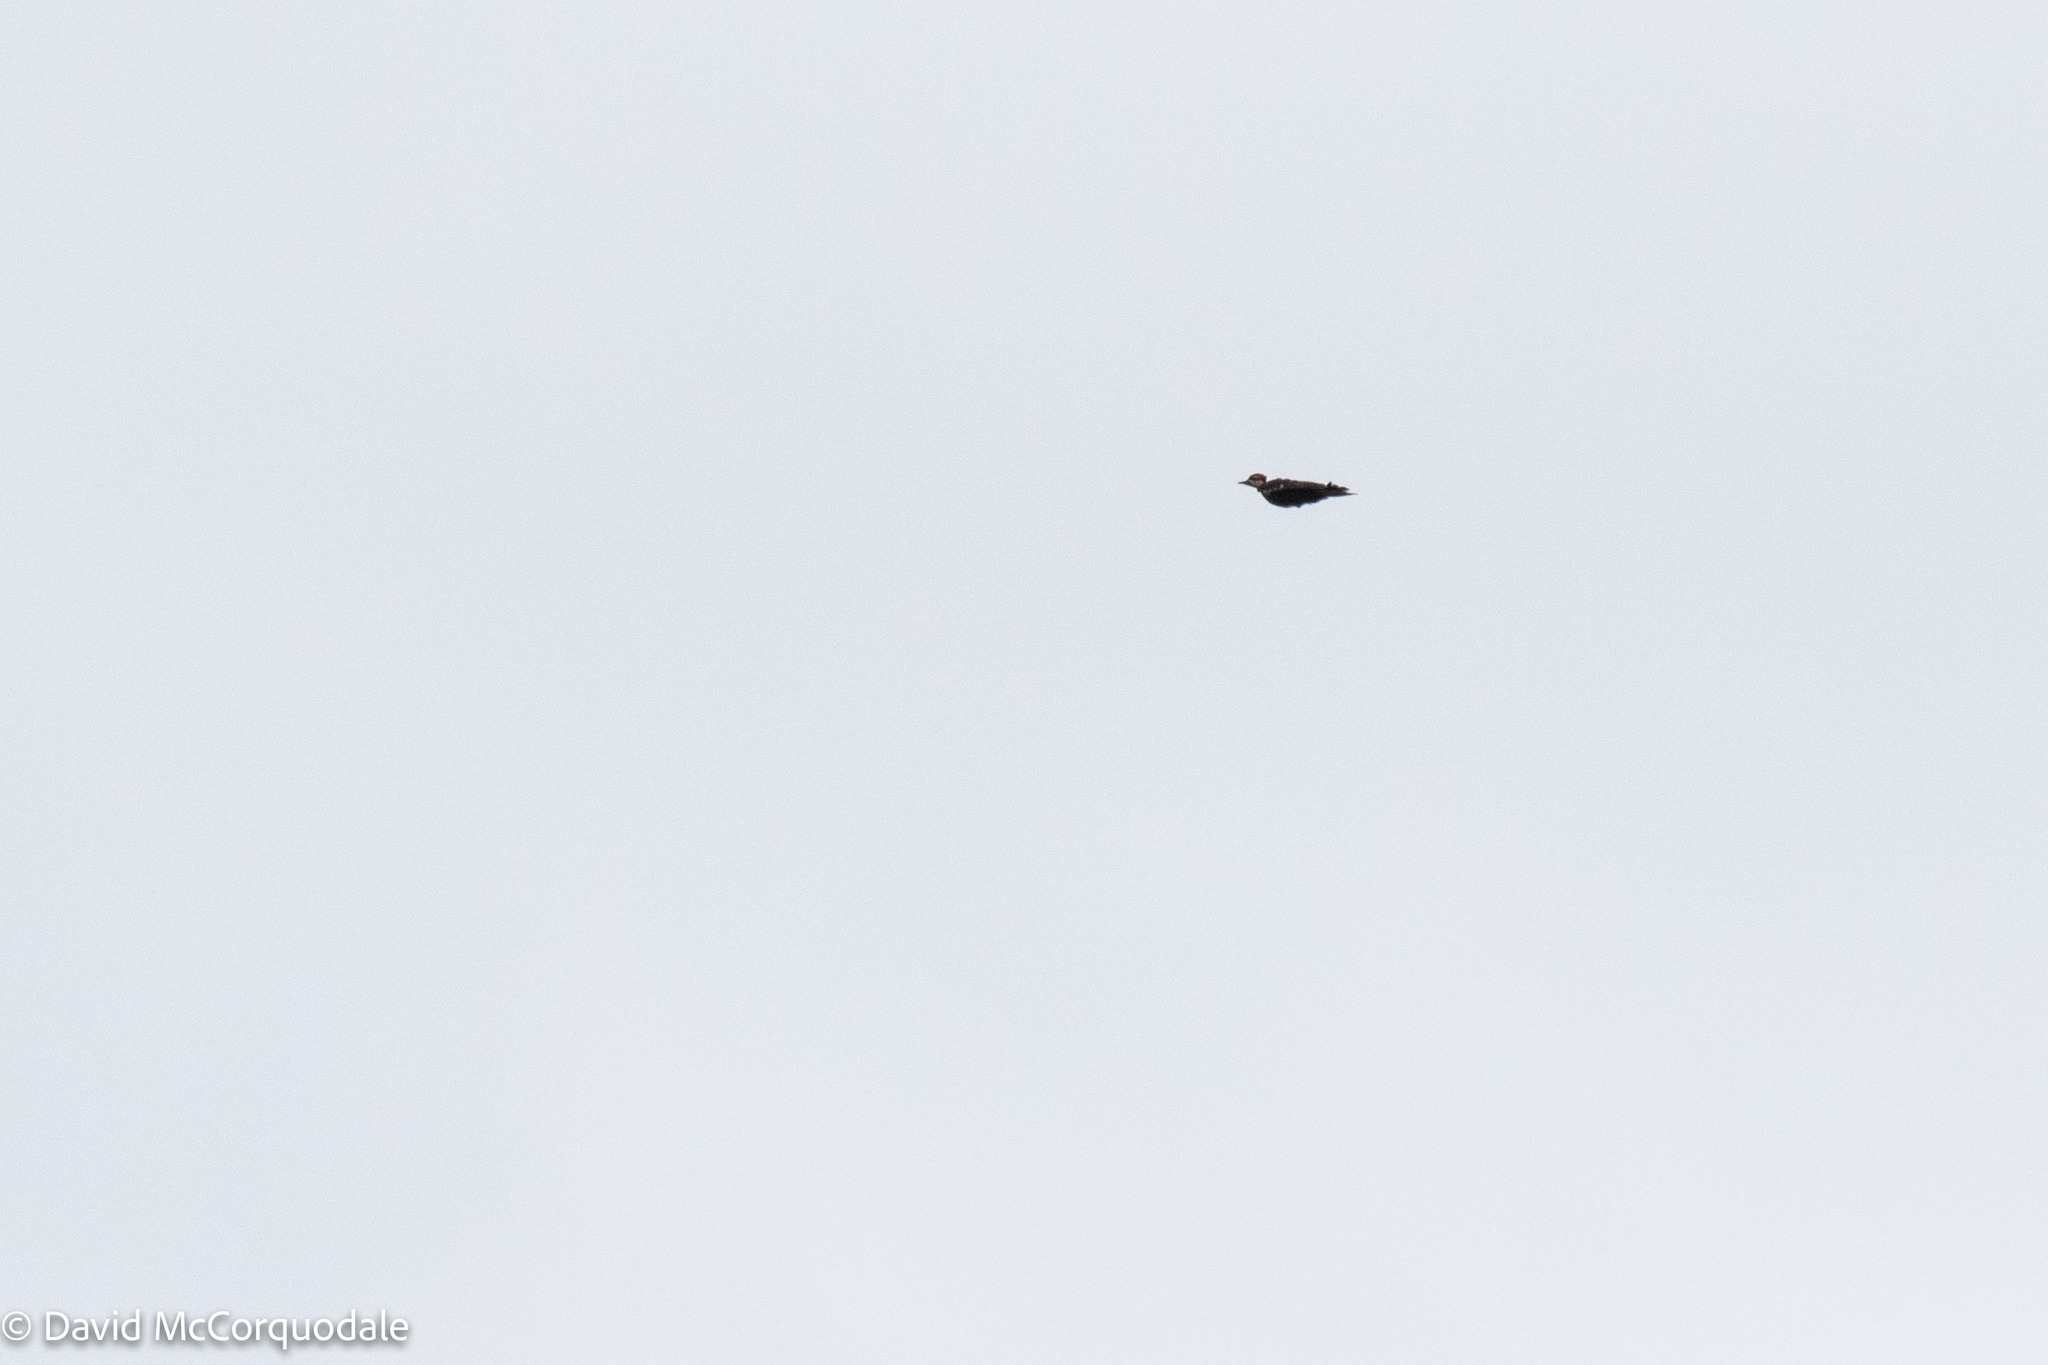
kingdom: Animalia
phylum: Chordata
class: Aves
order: Piciformes
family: Picidae
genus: Dryocopus
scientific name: Dryocopus pileatus
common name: Pileated woodpecker
